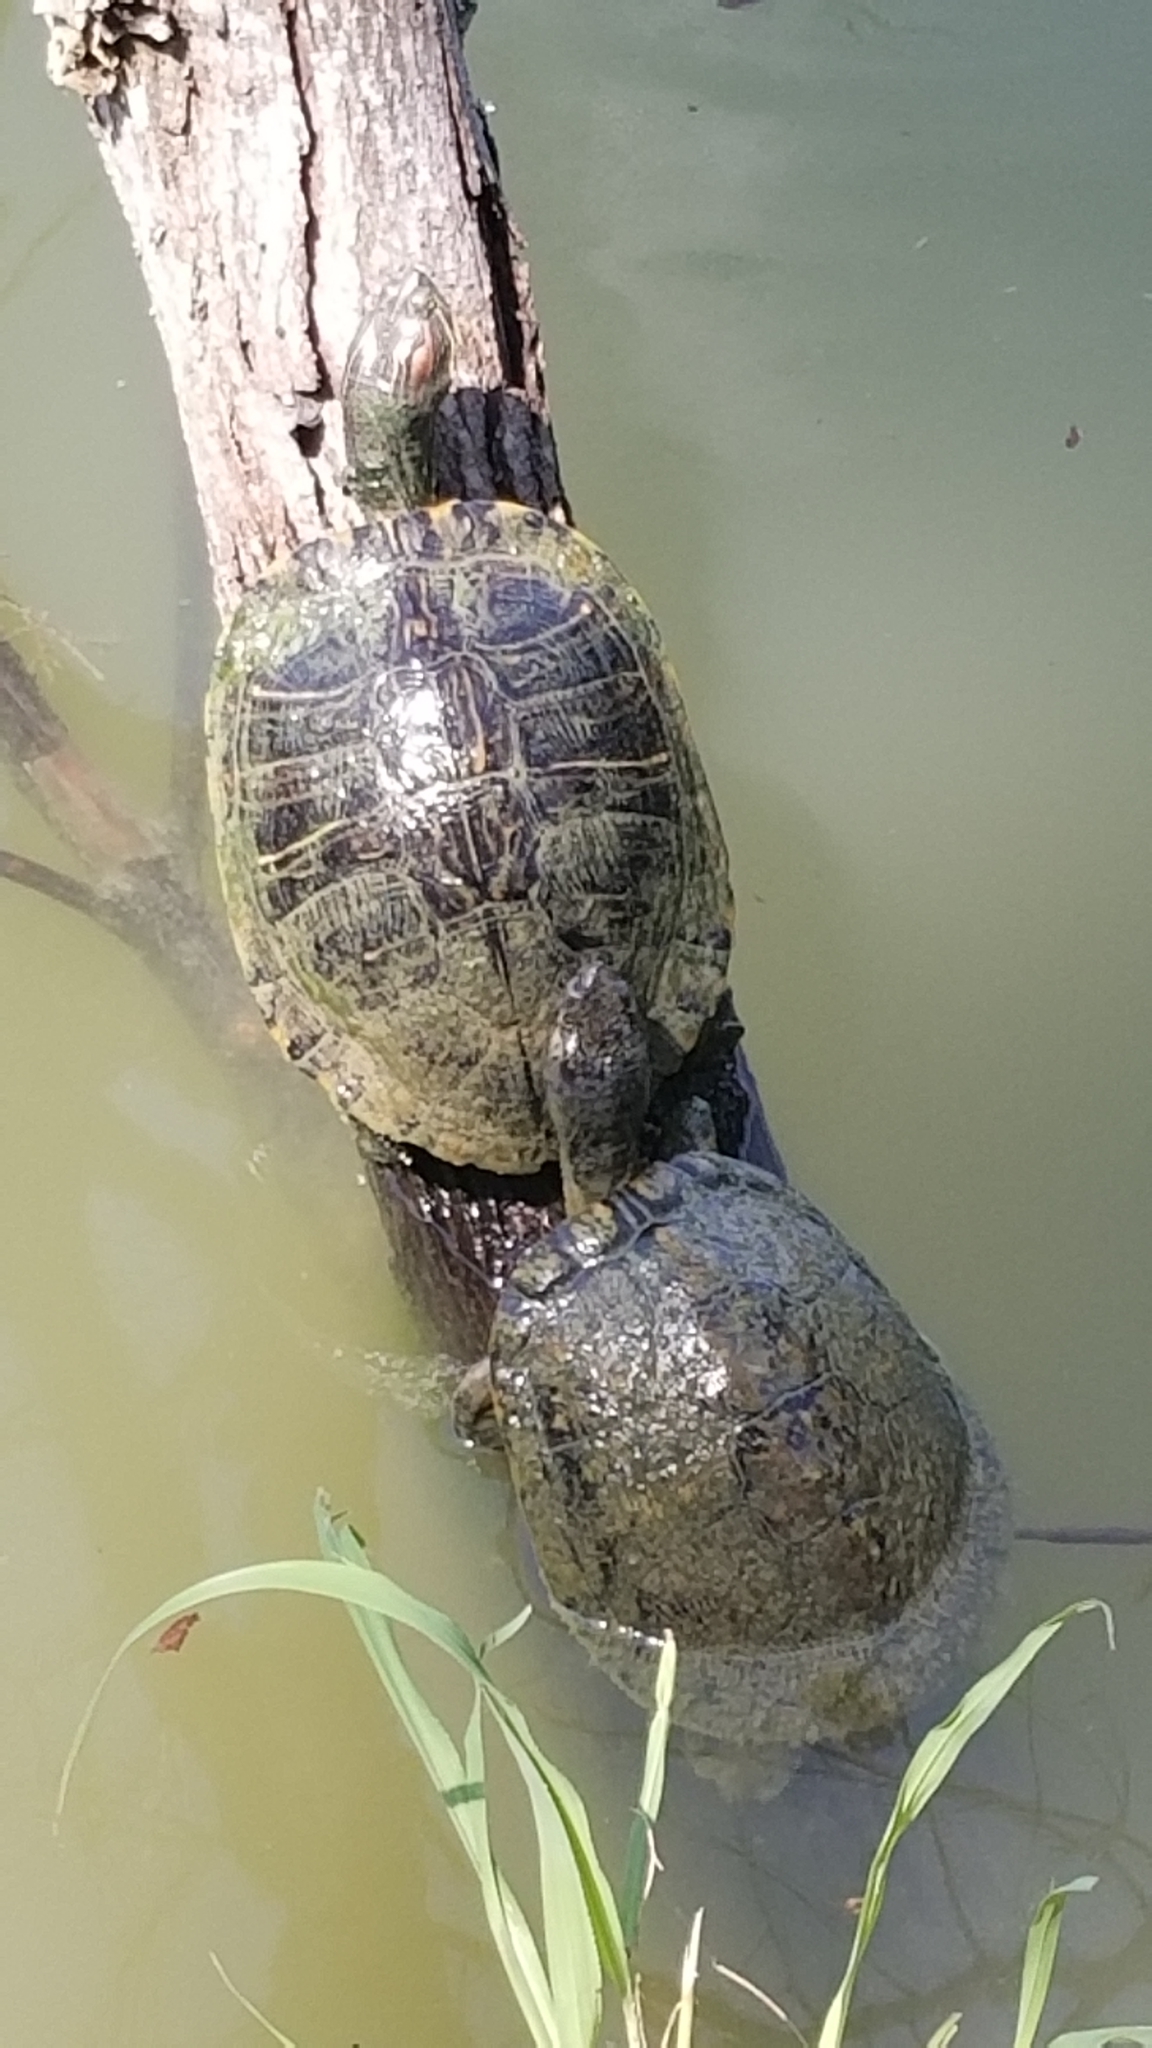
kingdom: Animalia
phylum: Chordata
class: Testudines
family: Emydidae
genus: Trachemys
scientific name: Trachemys scripta
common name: Slider
